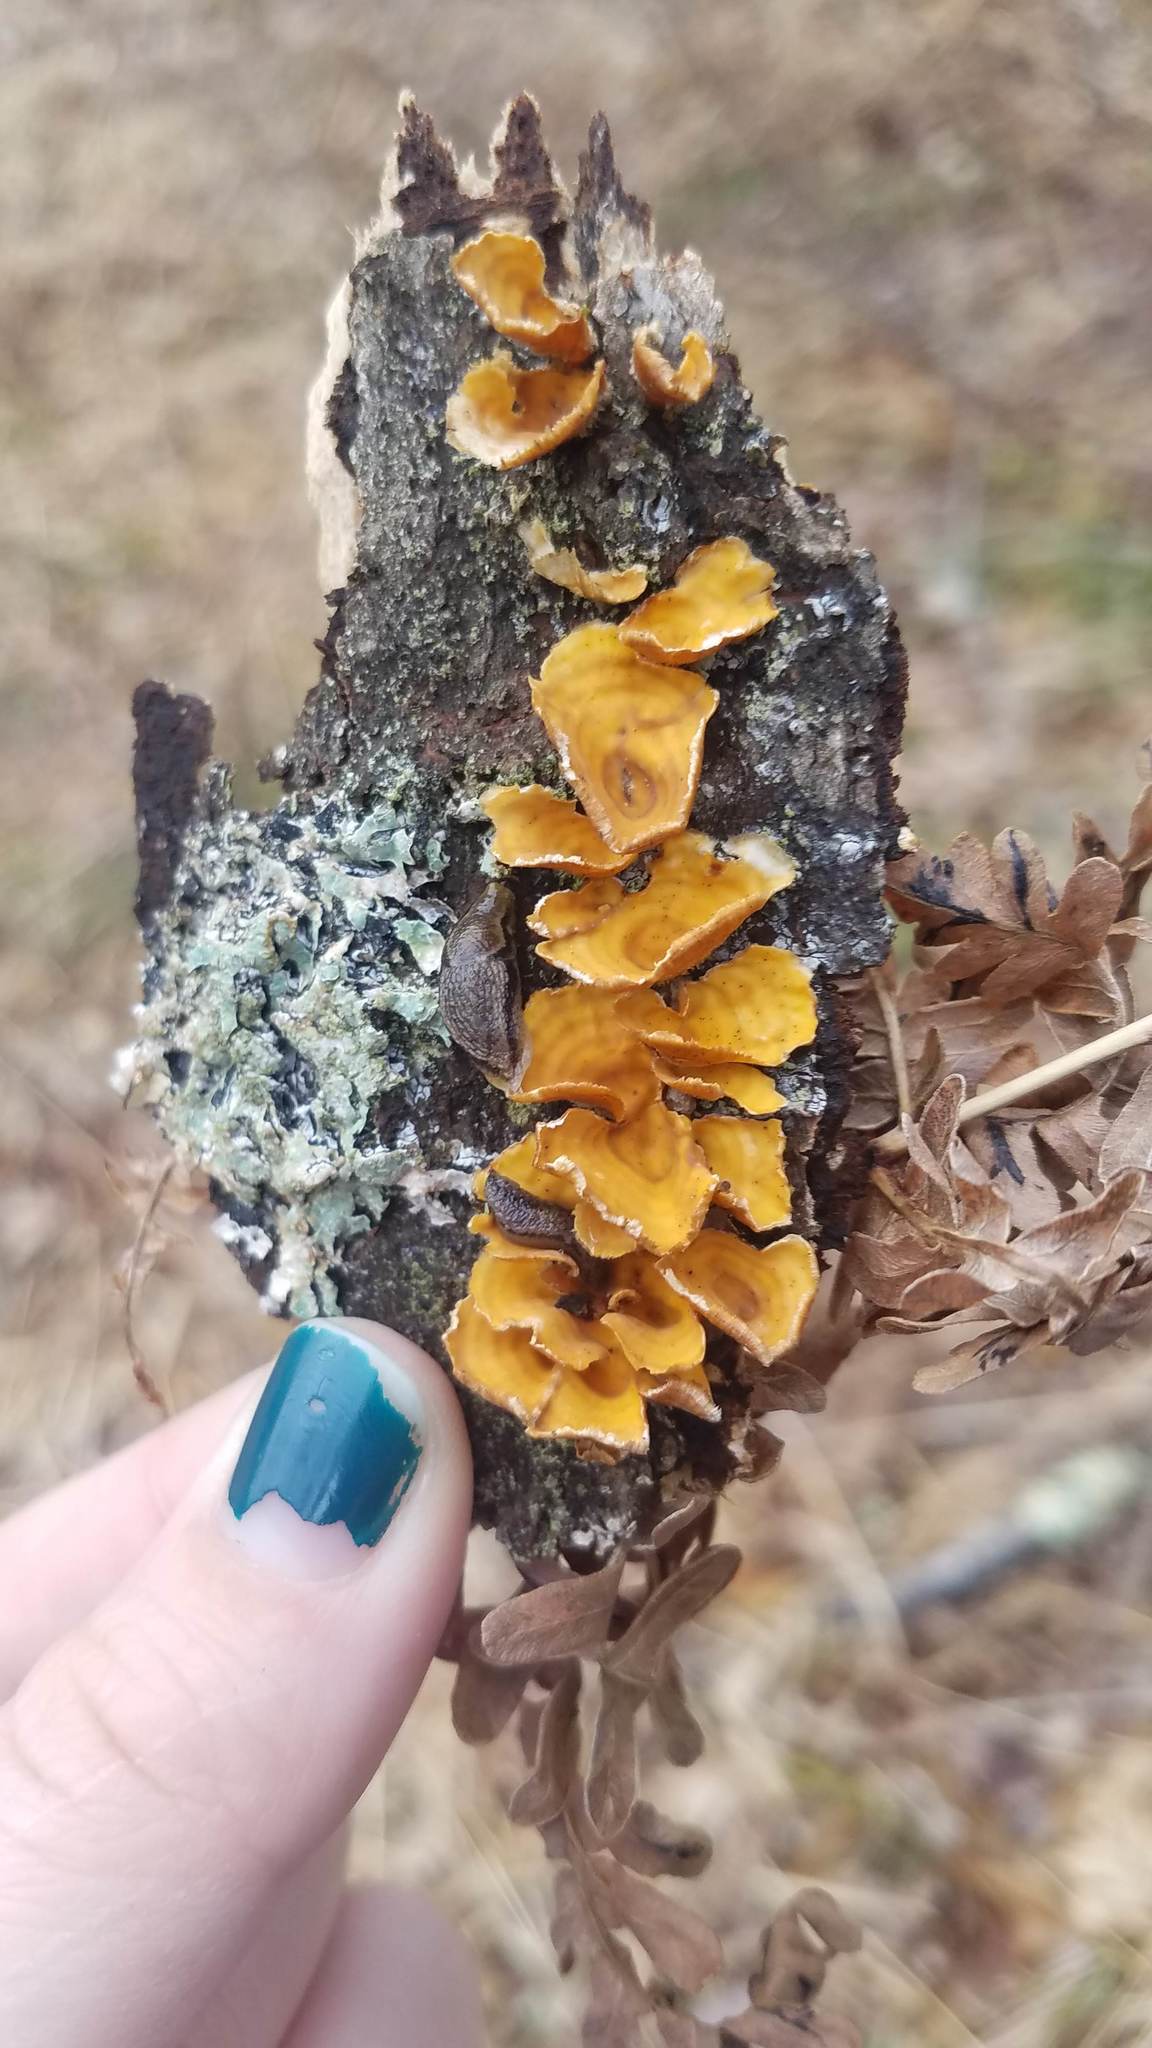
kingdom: Fungi
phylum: Basidiomycota
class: Agaricomycetes
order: Russulales
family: Stereaceae
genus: Stereum
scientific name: Stereum complicatum
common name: Crowded parchment
